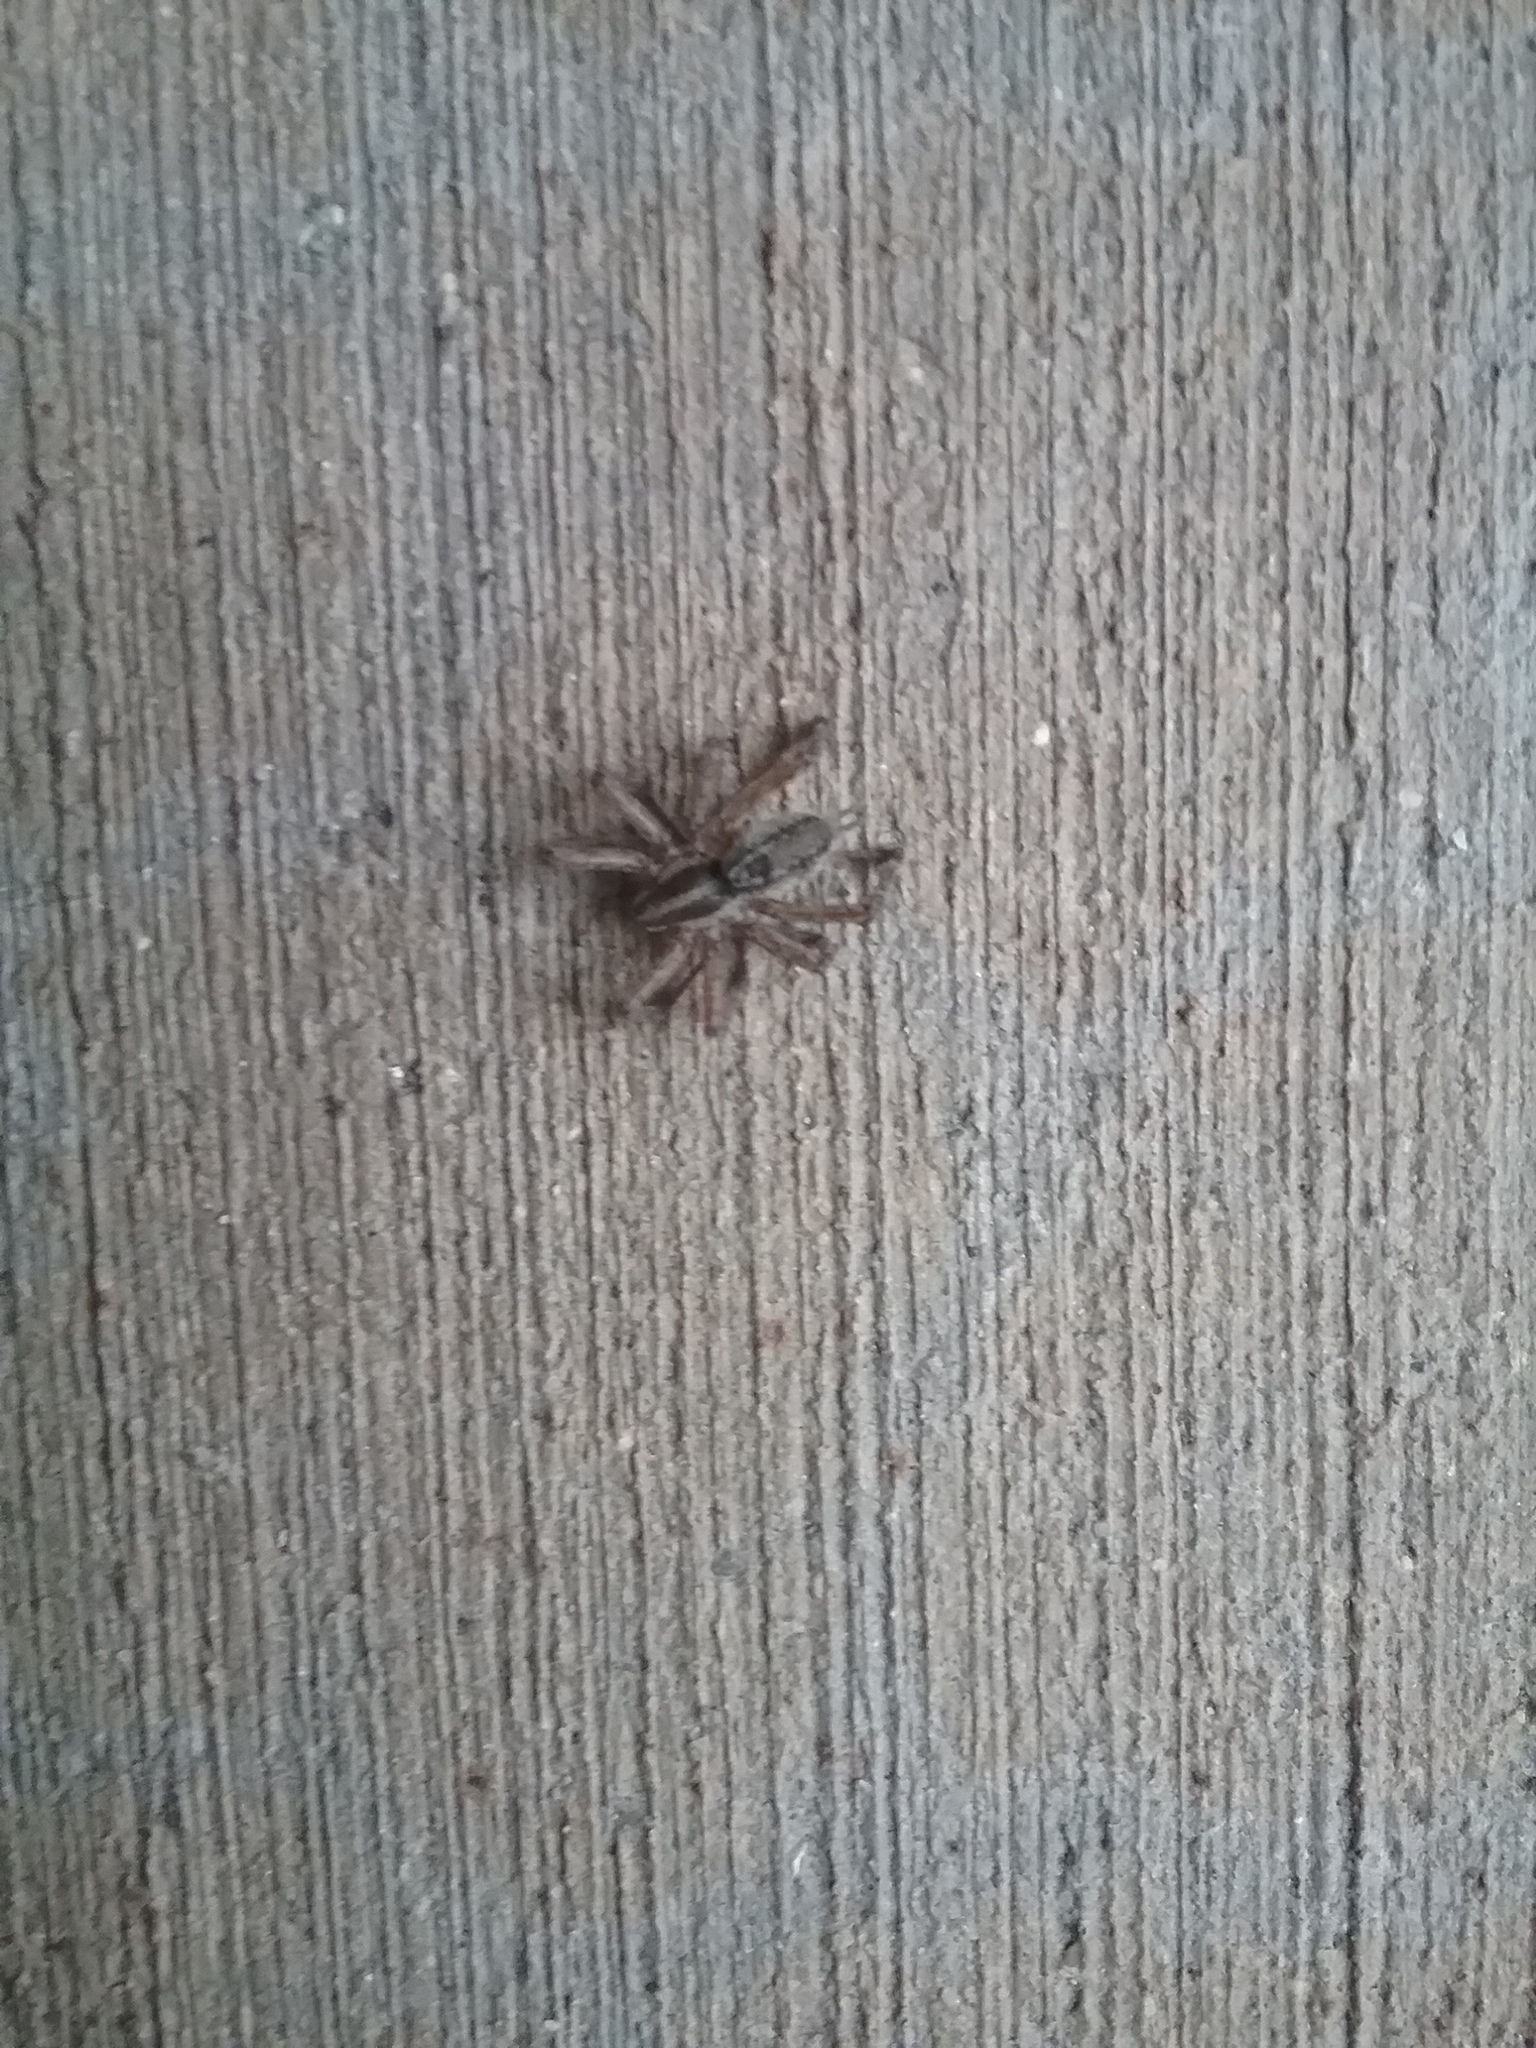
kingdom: Animalia
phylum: Arthropoda
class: Arachnida
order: Araneae
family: Agelenidae
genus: Agelenopsis
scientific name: Agelenopsis
